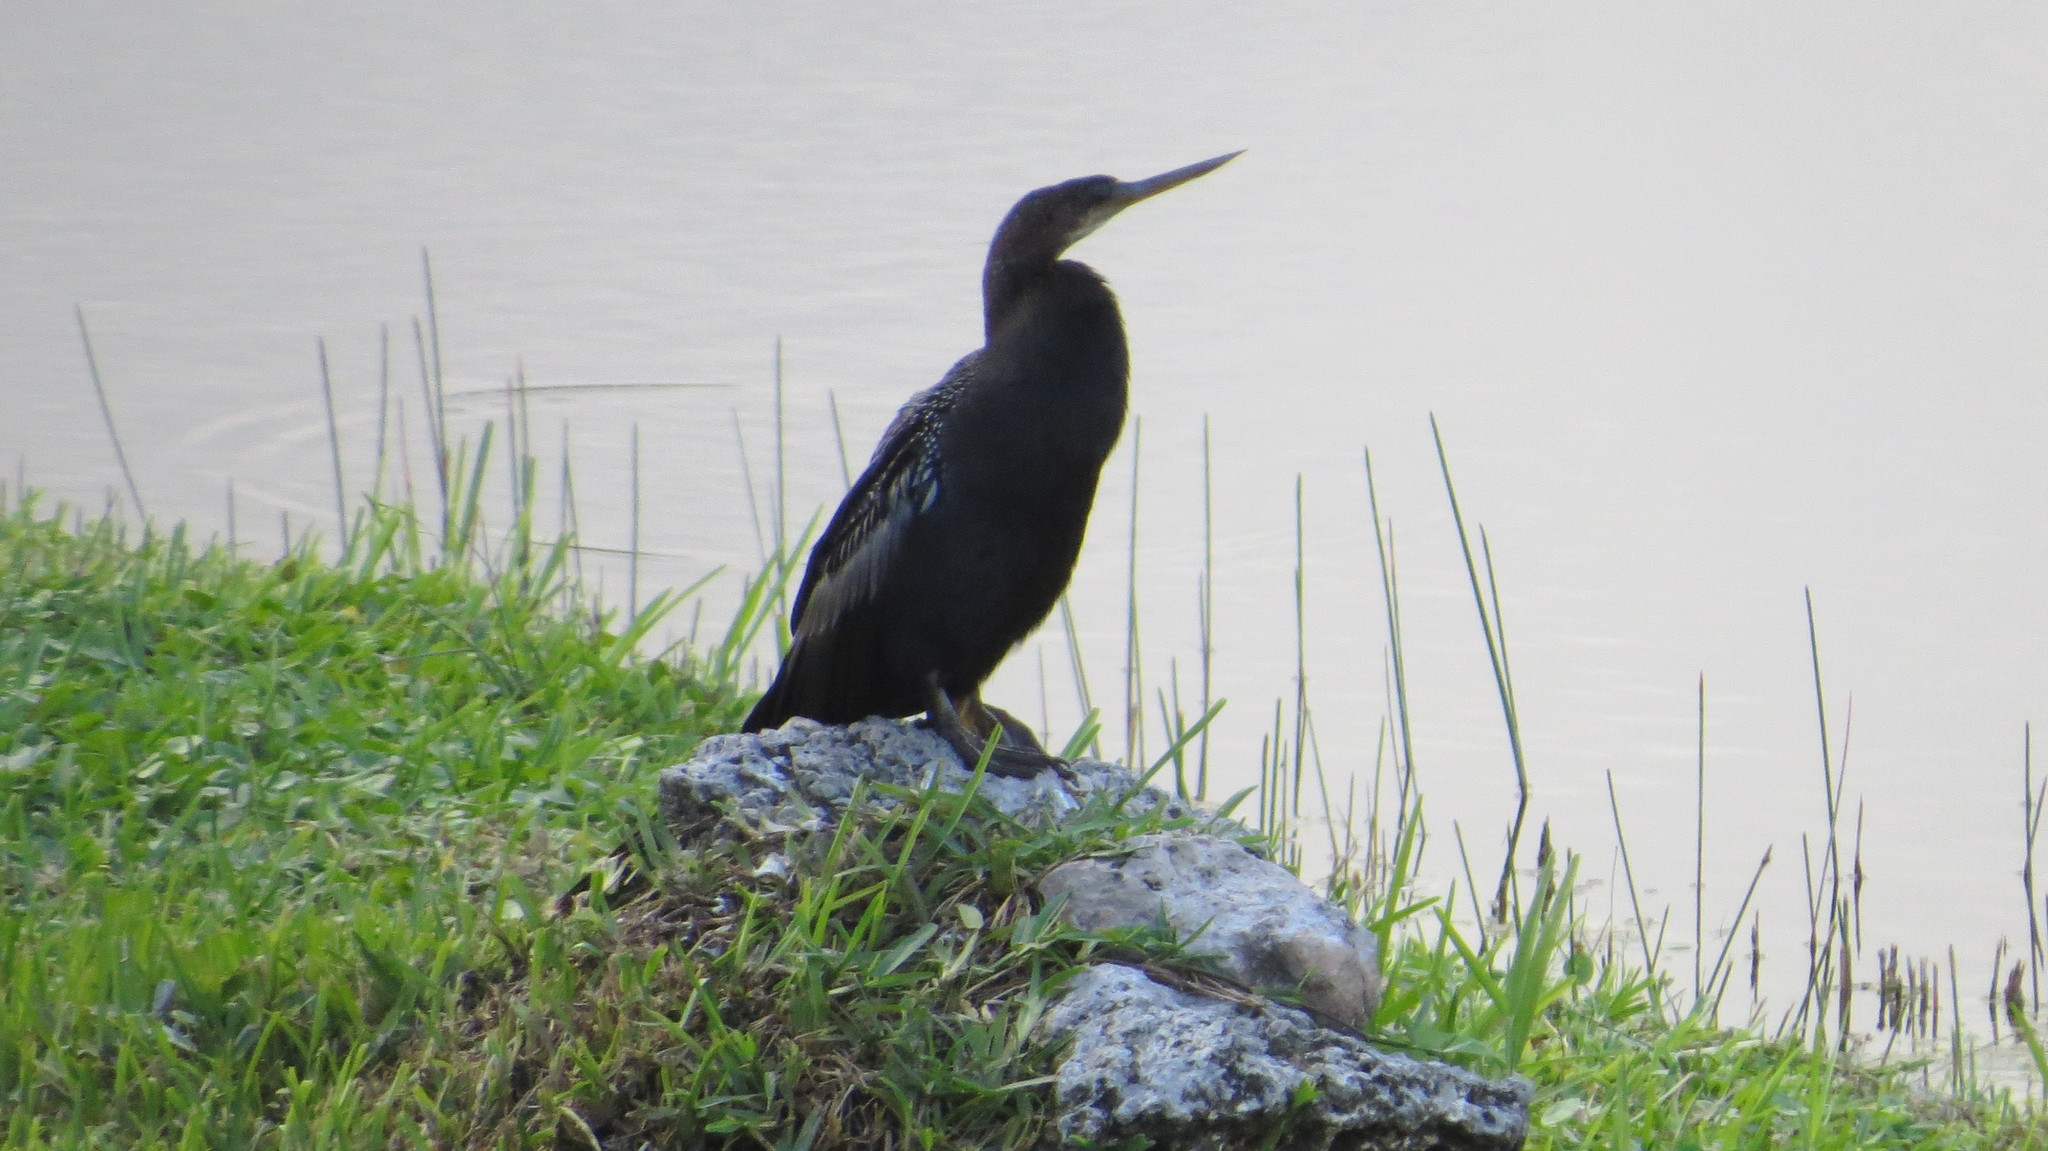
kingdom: Animalia
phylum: Chordata
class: Aves
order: Suliformes
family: Anhingidae
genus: Anhinga
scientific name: Anhinga anhinga
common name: Anhinga
